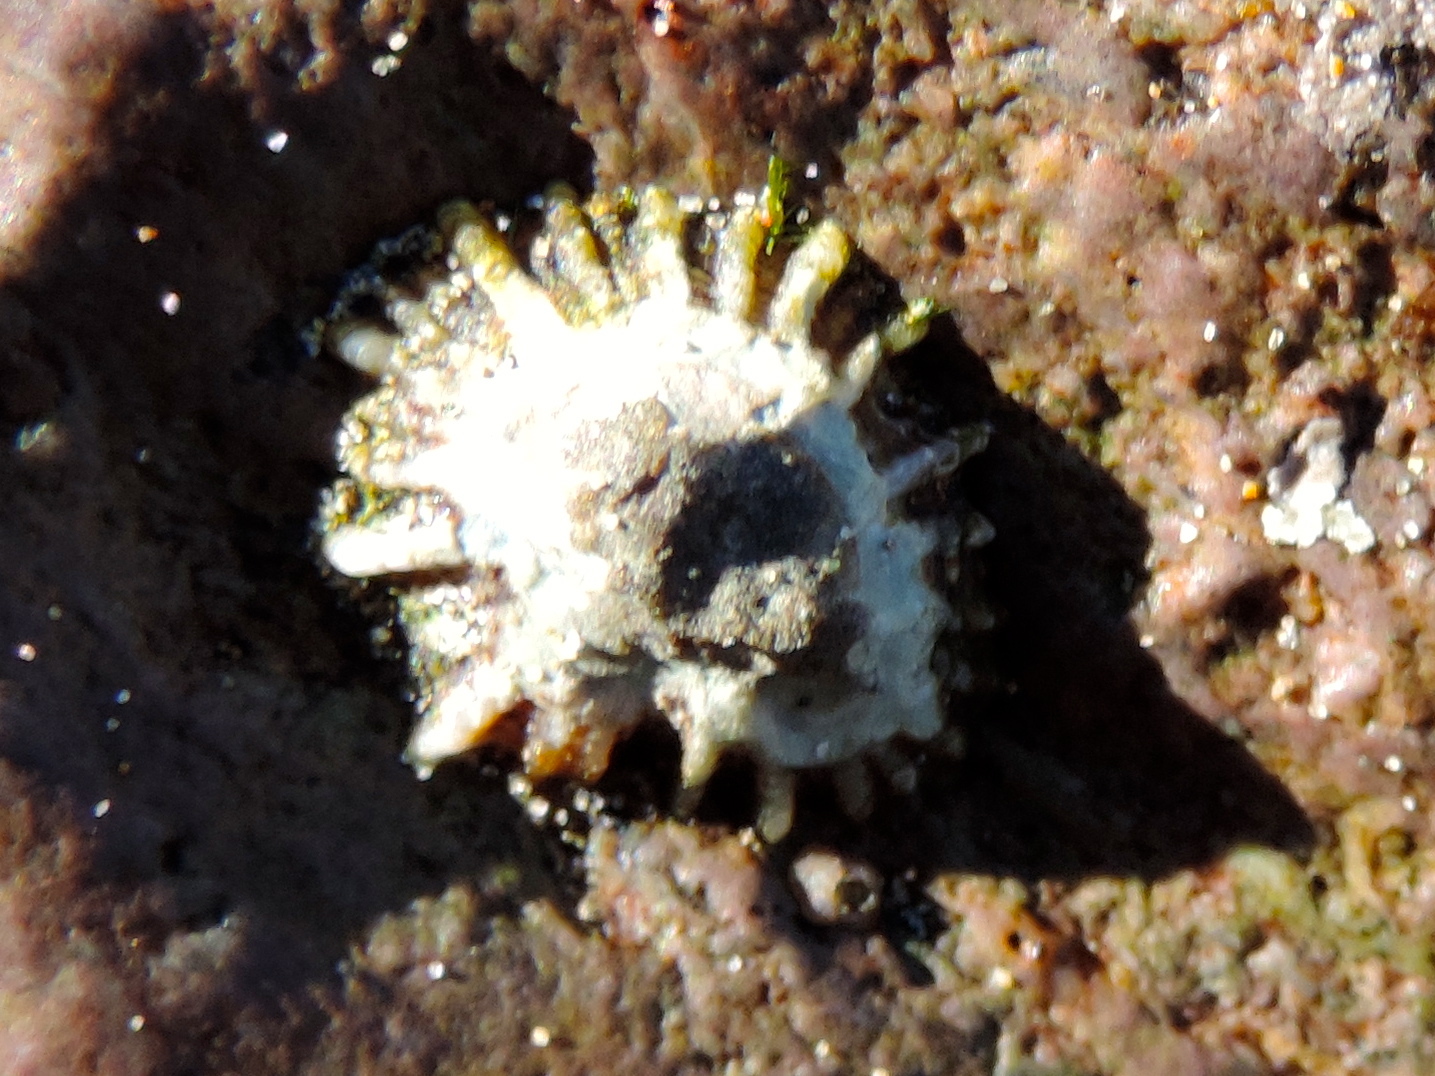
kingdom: Animalia
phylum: Mollusca
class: Gastropoda
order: Siphonariida
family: Siphonariidae
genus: Siphonaria
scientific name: Siphonaria
